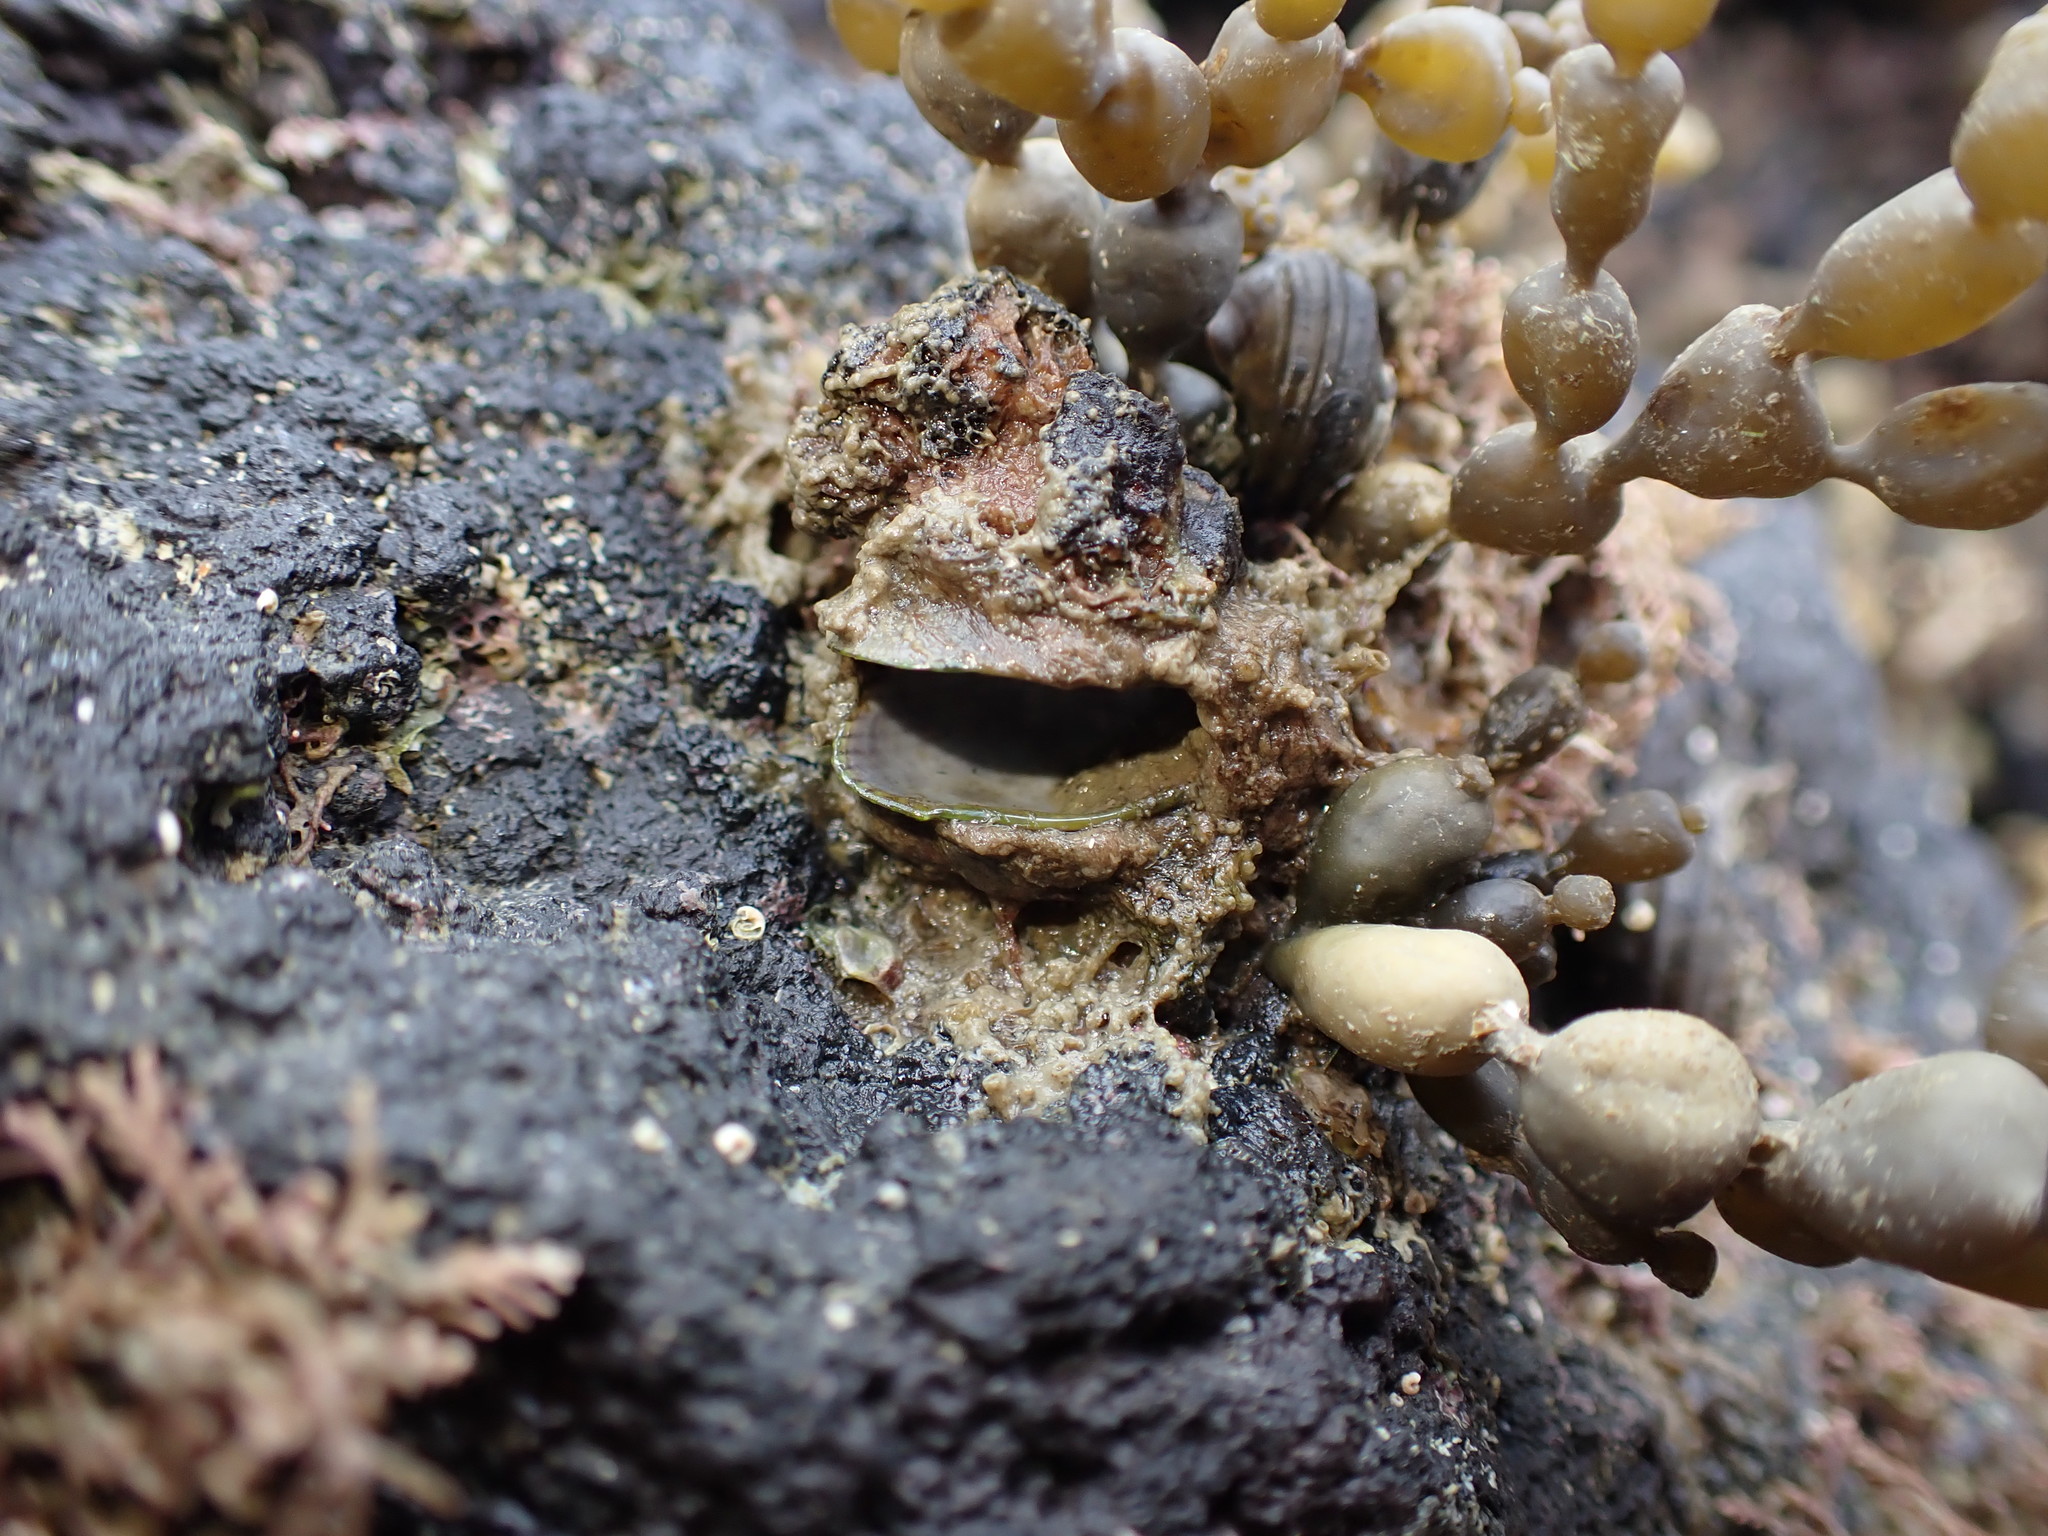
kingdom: Animalia
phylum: Mollusca
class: Bivalvia
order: Mytilida
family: Mytilidae
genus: Musculus
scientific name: Musculus impactus
